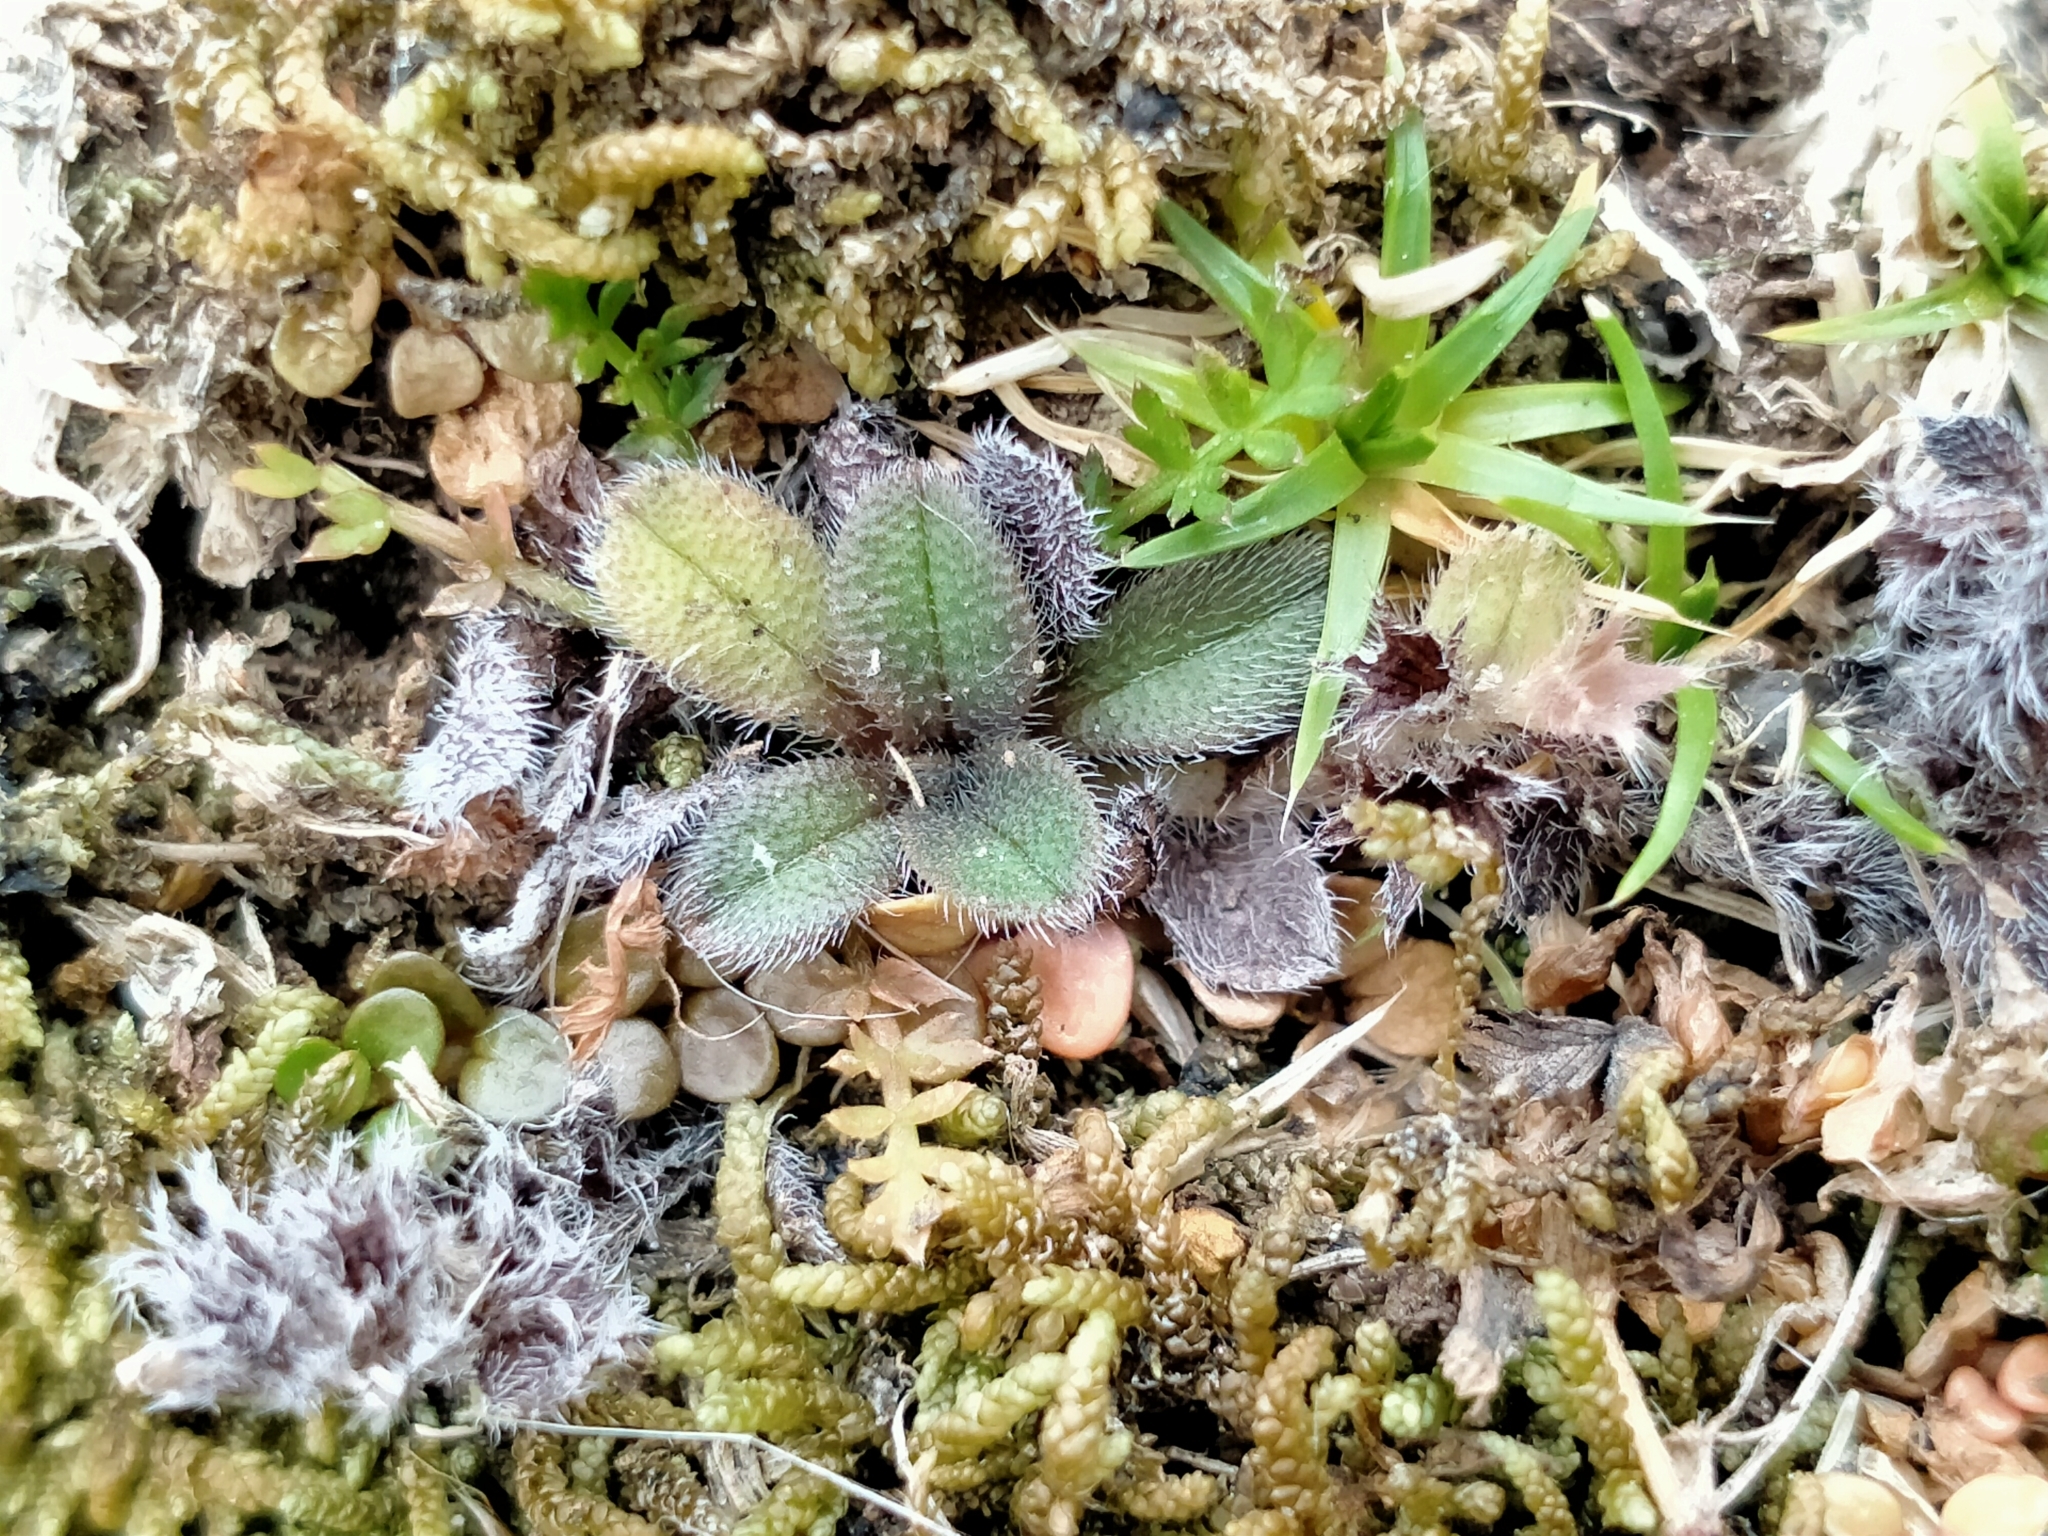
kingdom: Plantae
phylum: Tracheophyta
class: Magnoliopsida
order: Boraginales
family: Boraginaceae
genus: Myosotis
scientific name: Myosotis antarctica
